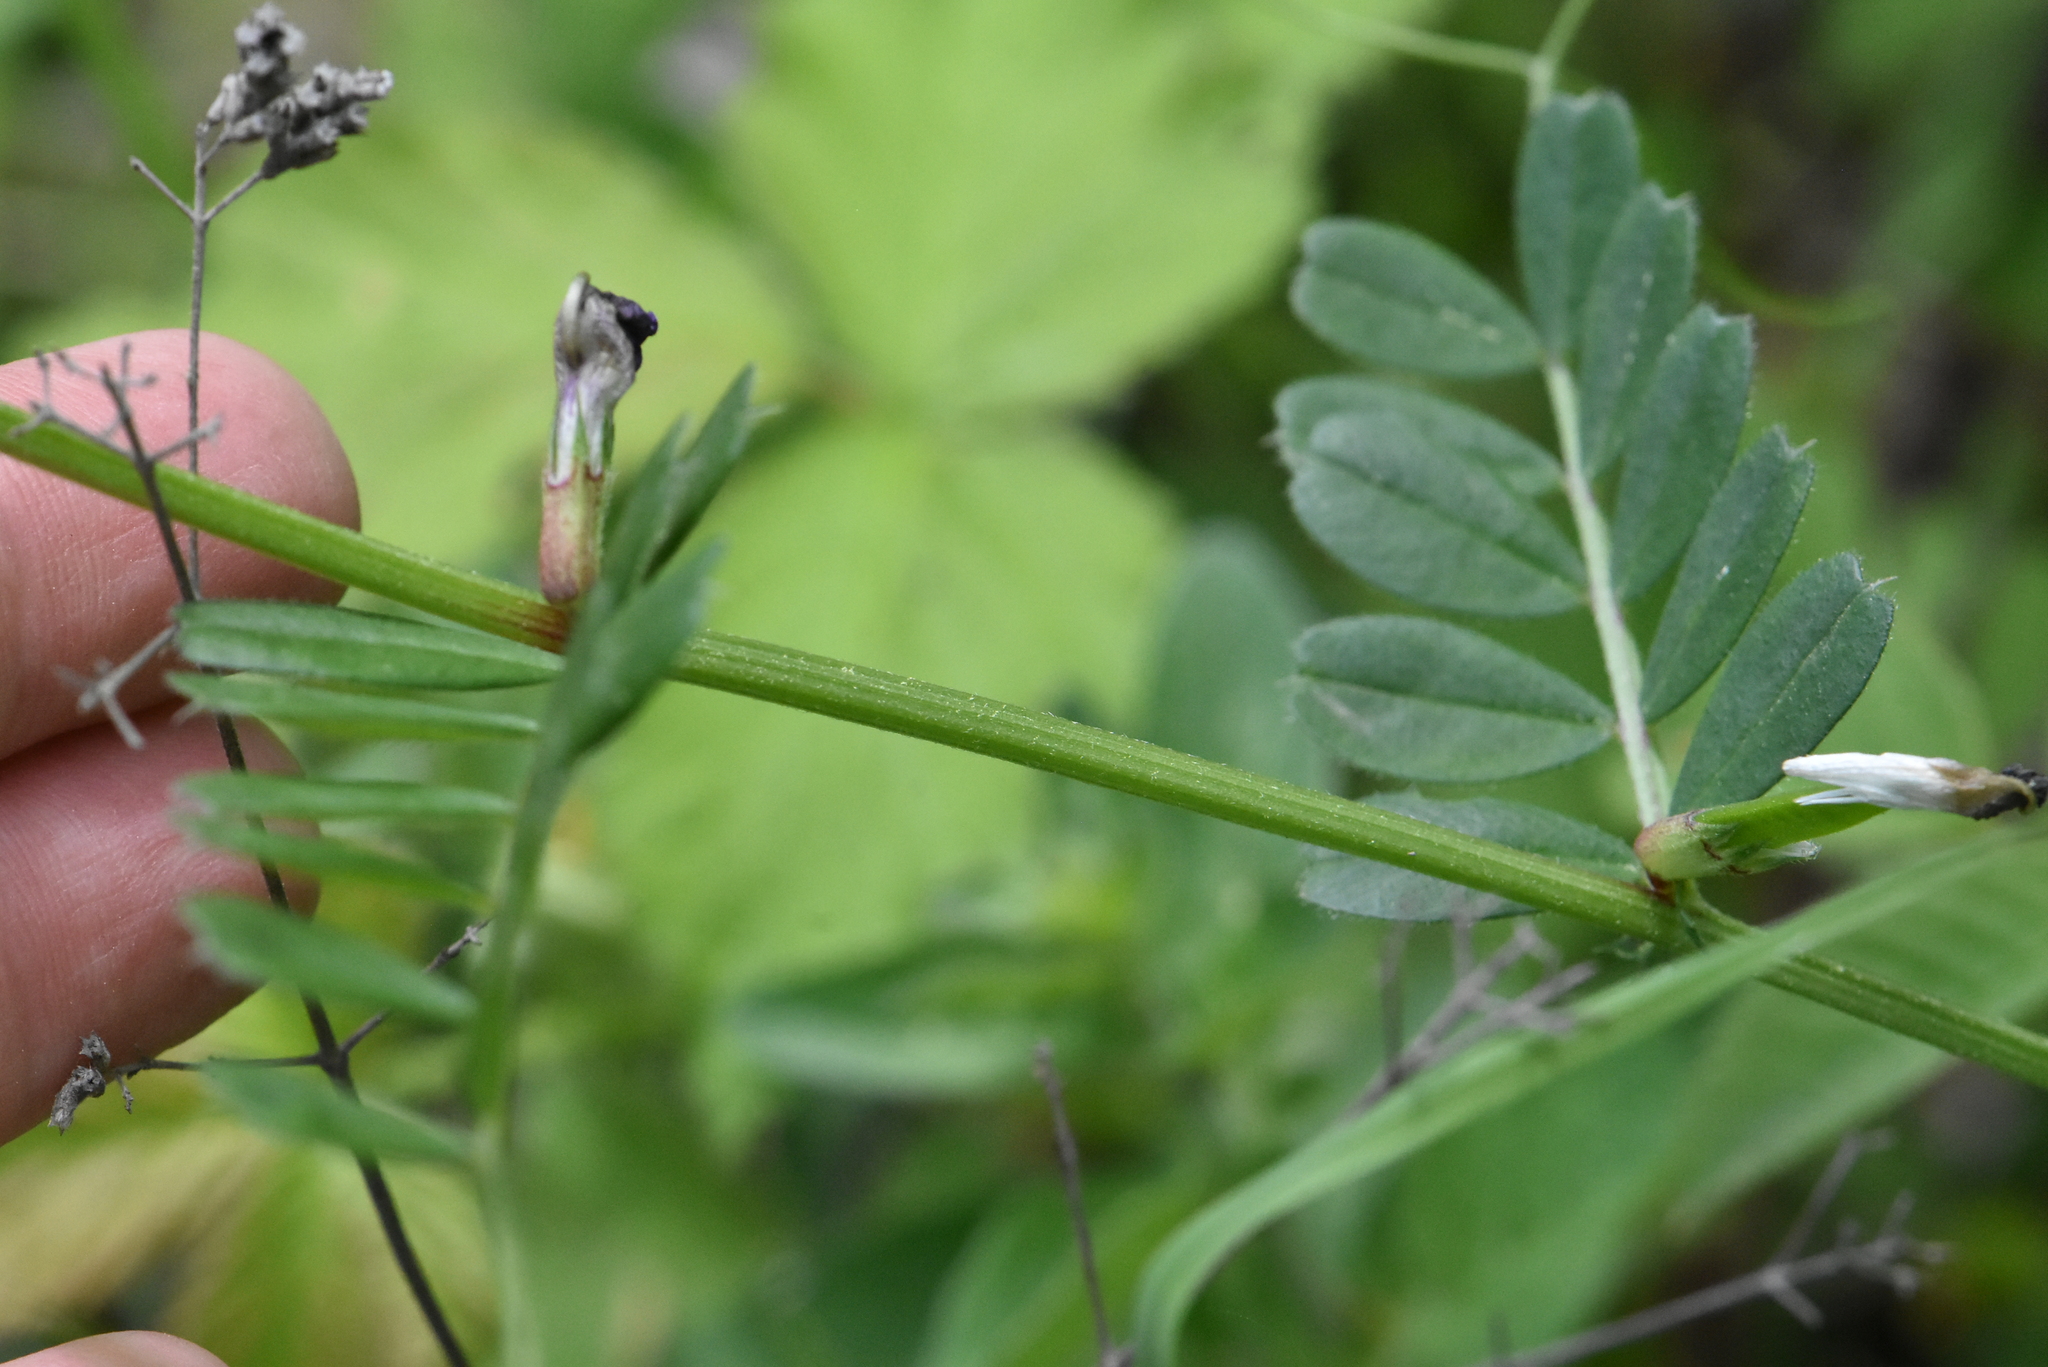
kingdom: Plantae
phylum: Tracheophyta
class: Magnoliopsida
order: Fabales
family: Fabaceae
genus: Vicia
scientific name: Vicia sativa
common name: Garden vetch
